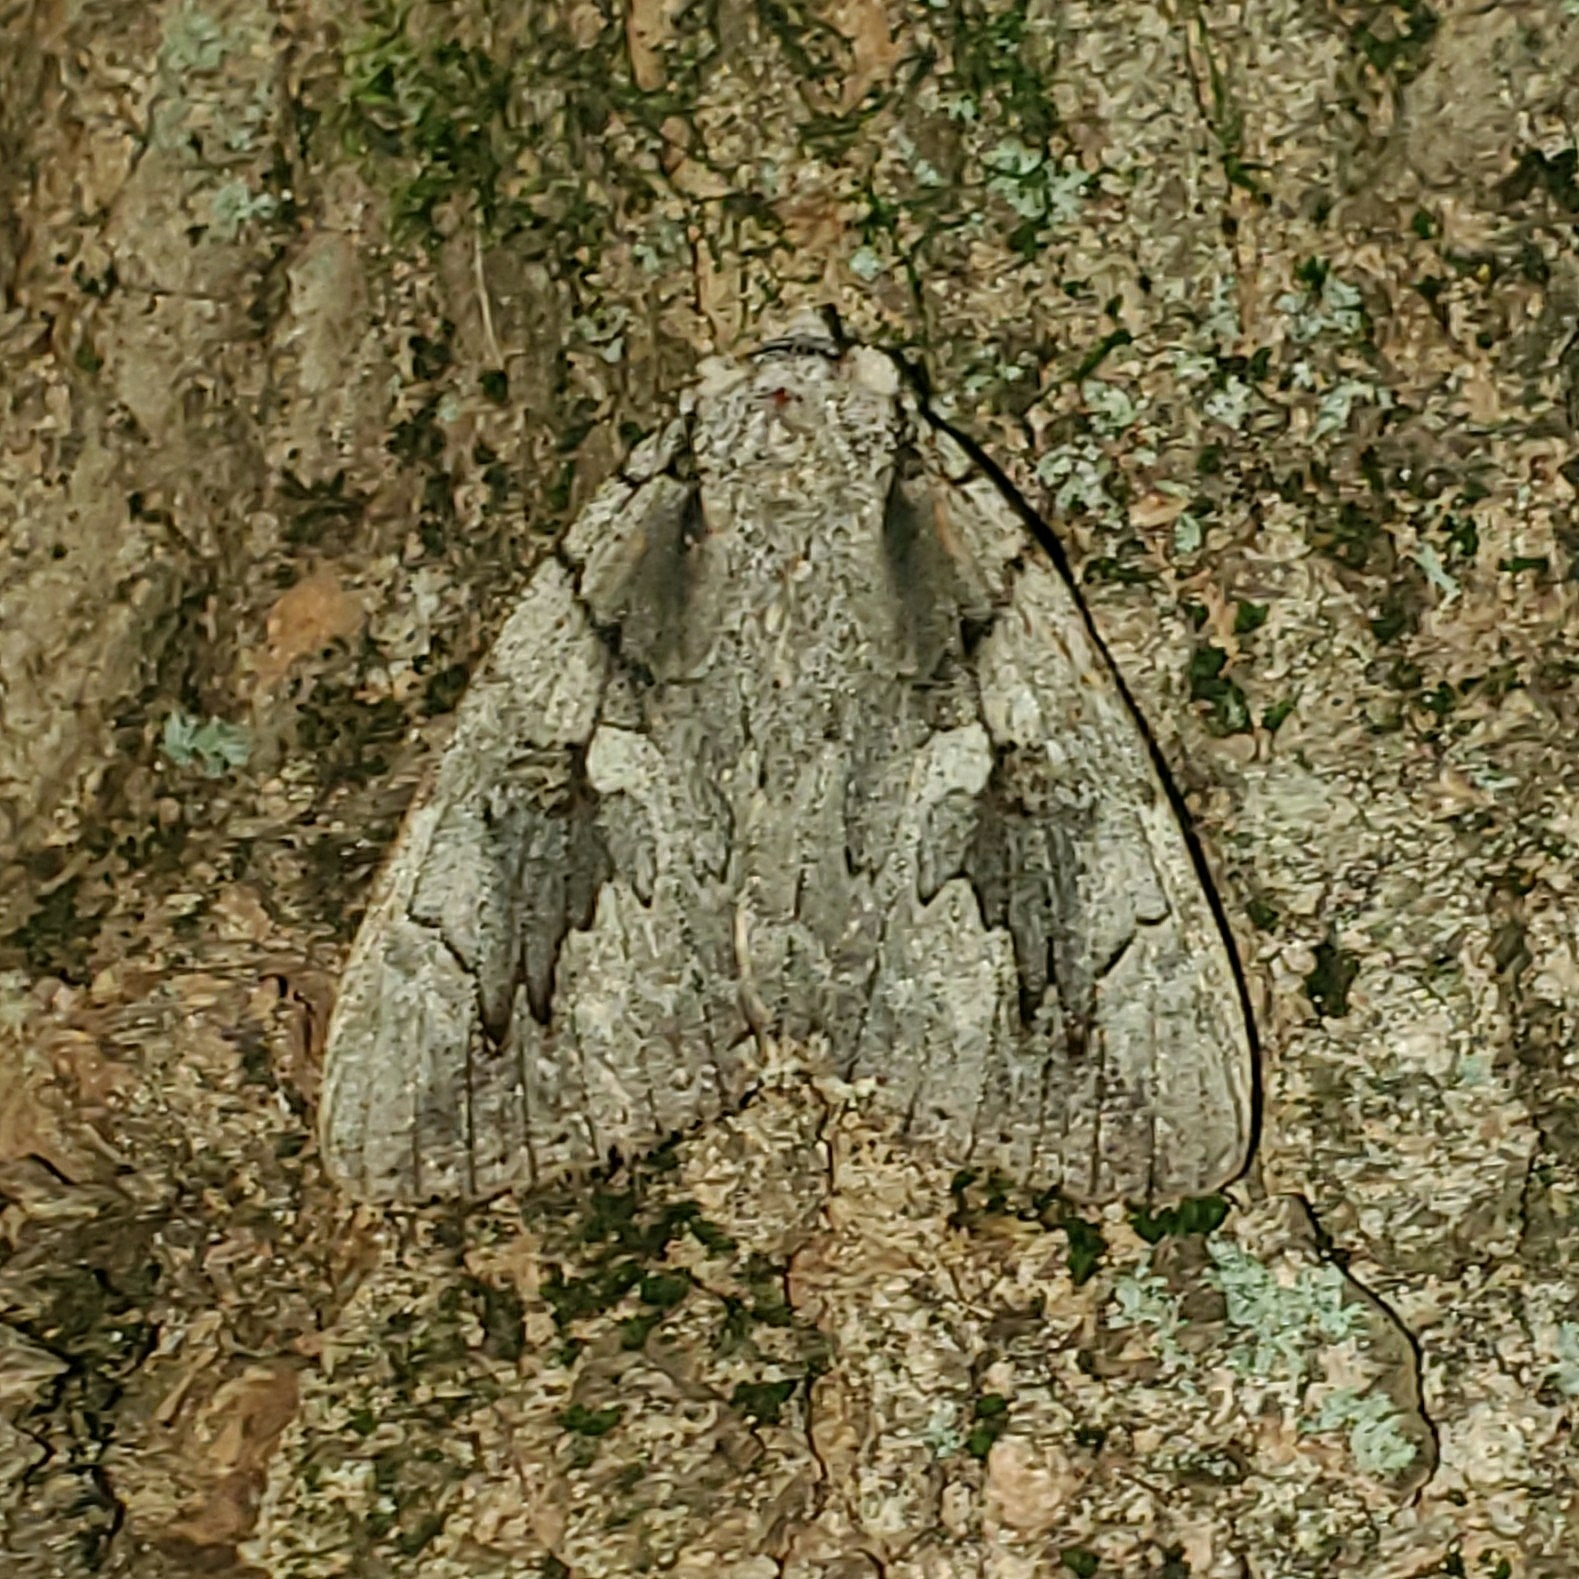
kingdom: Animalia
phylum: Arthropoda
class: Insecta
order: Lepidoptera
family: Erebidae
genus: Catocala
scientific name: Catocala amatrix
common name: Sweetheart underwing
